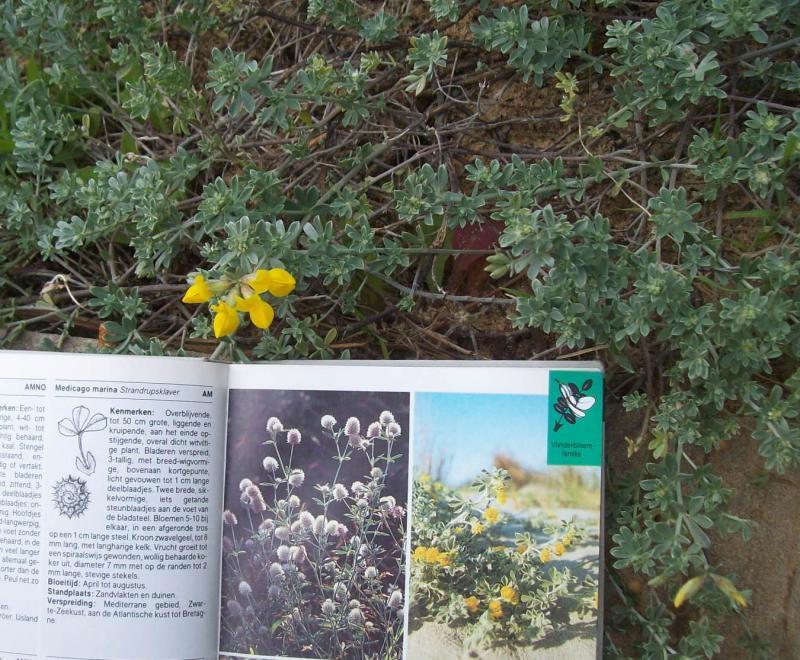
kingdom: Plantae
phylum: Tracheophyta
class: Magnoliopsida
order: Fabales
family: Fabaceae
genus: Lotus
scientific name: Lotus creticus
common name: Cretan bird's-foot trefoil
